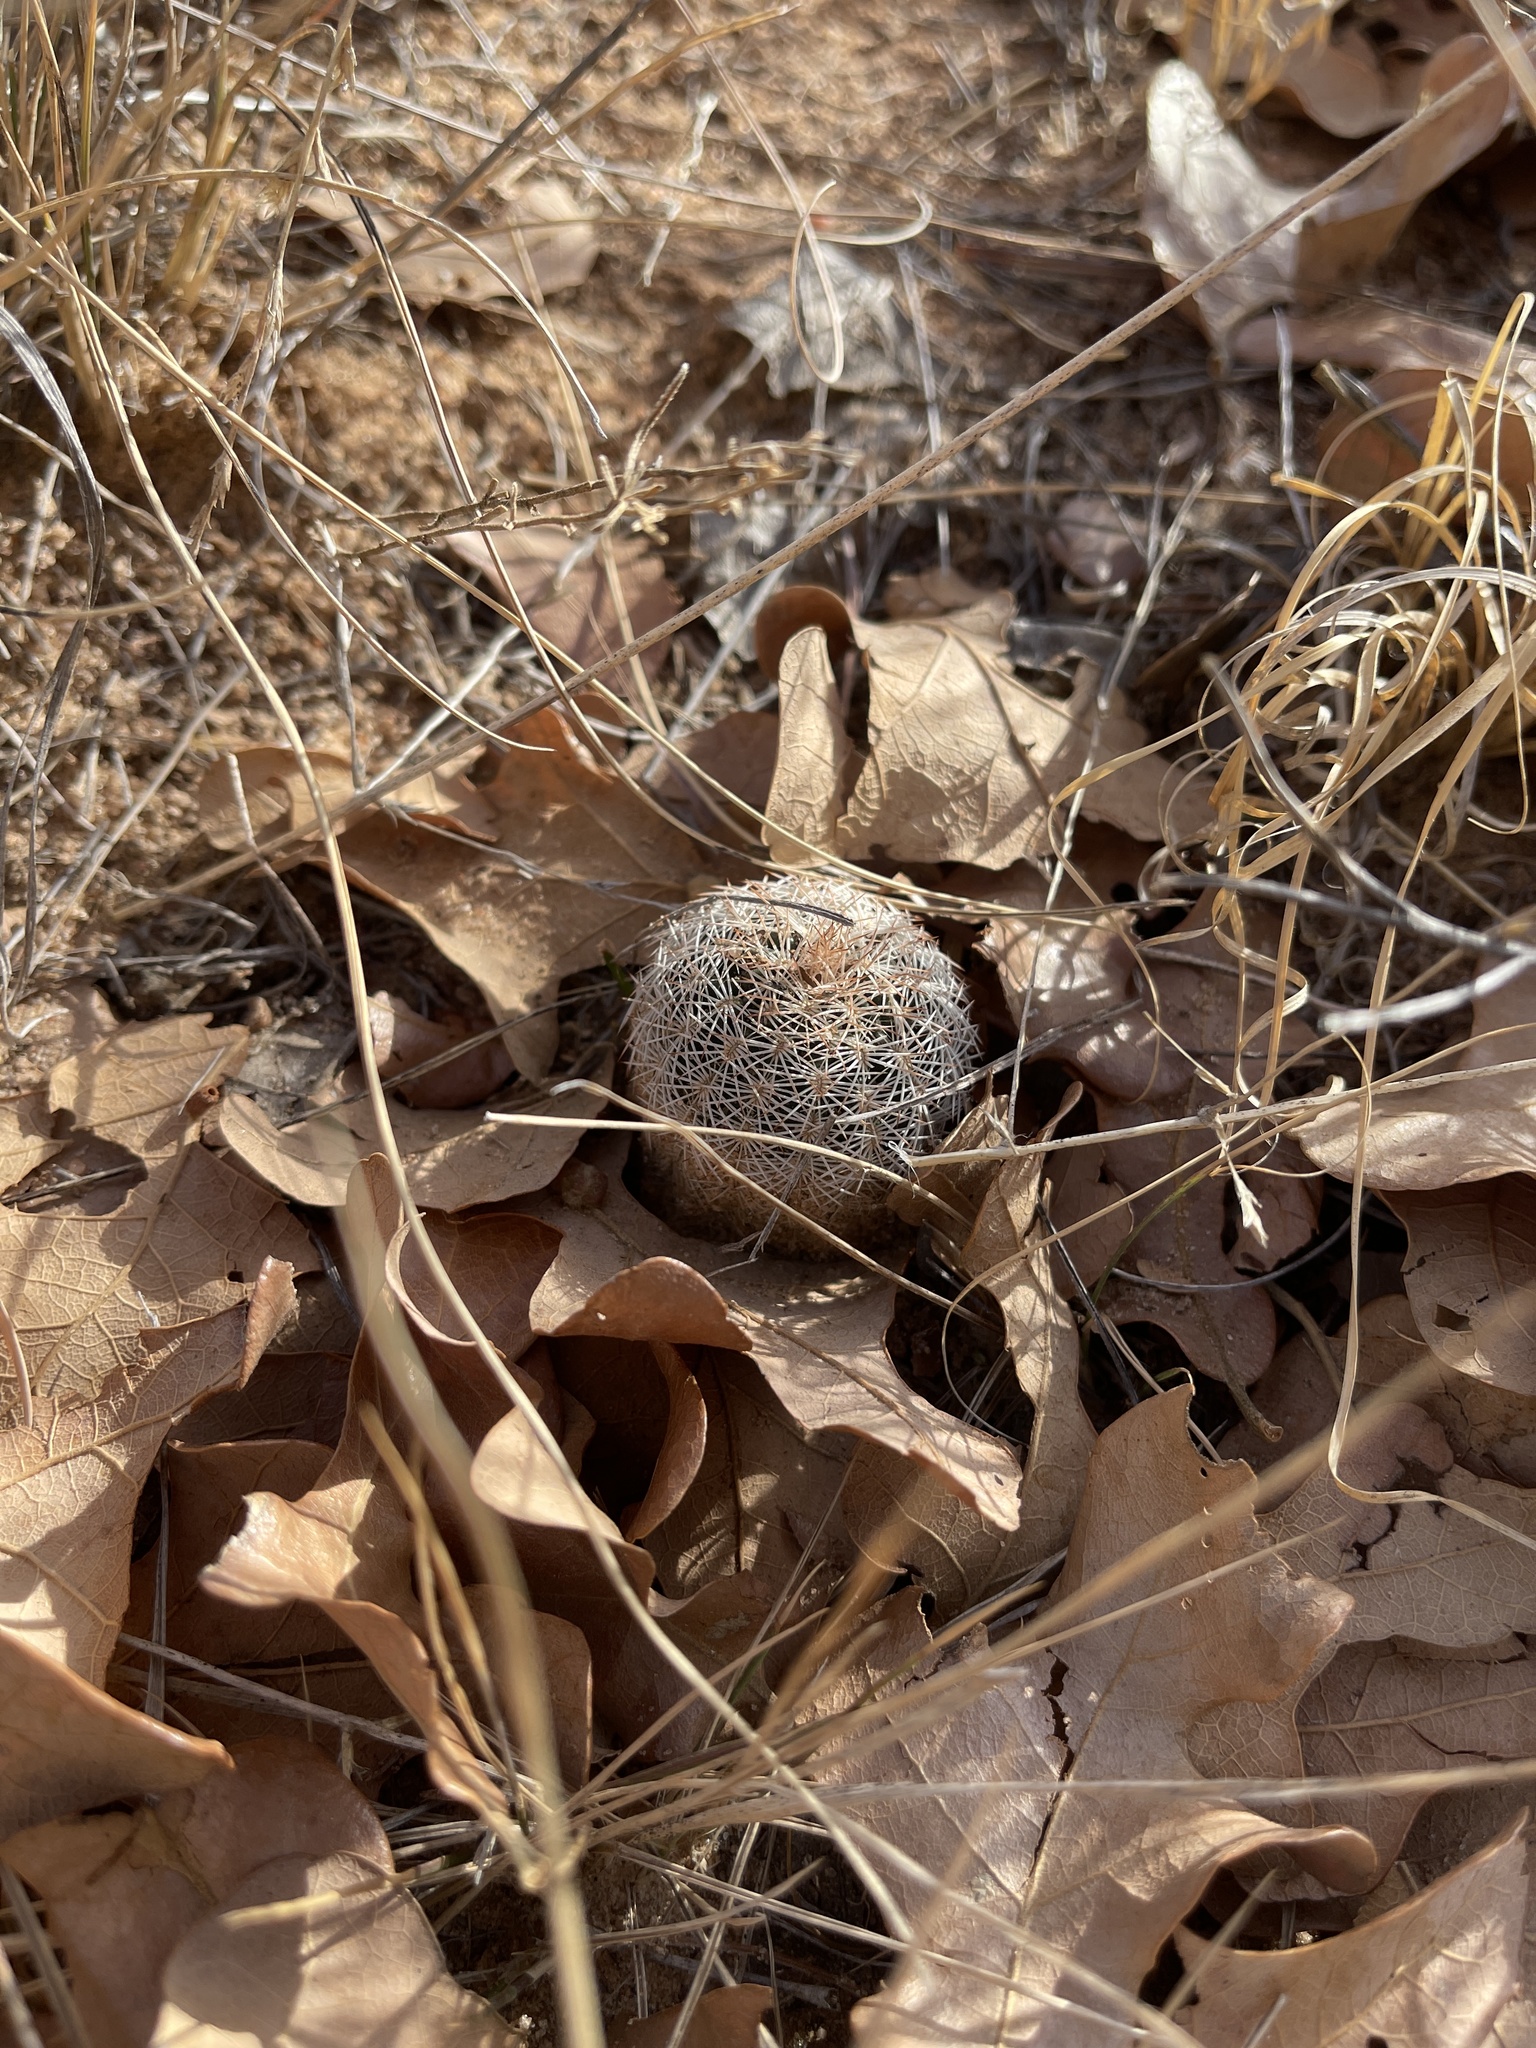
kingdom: Plantae
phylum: Tracheophyta
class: Magnoliopsida
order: Caryophyllales
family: Cactaceae
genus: Echinocereus
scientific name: Echinocereus reichenbachii
